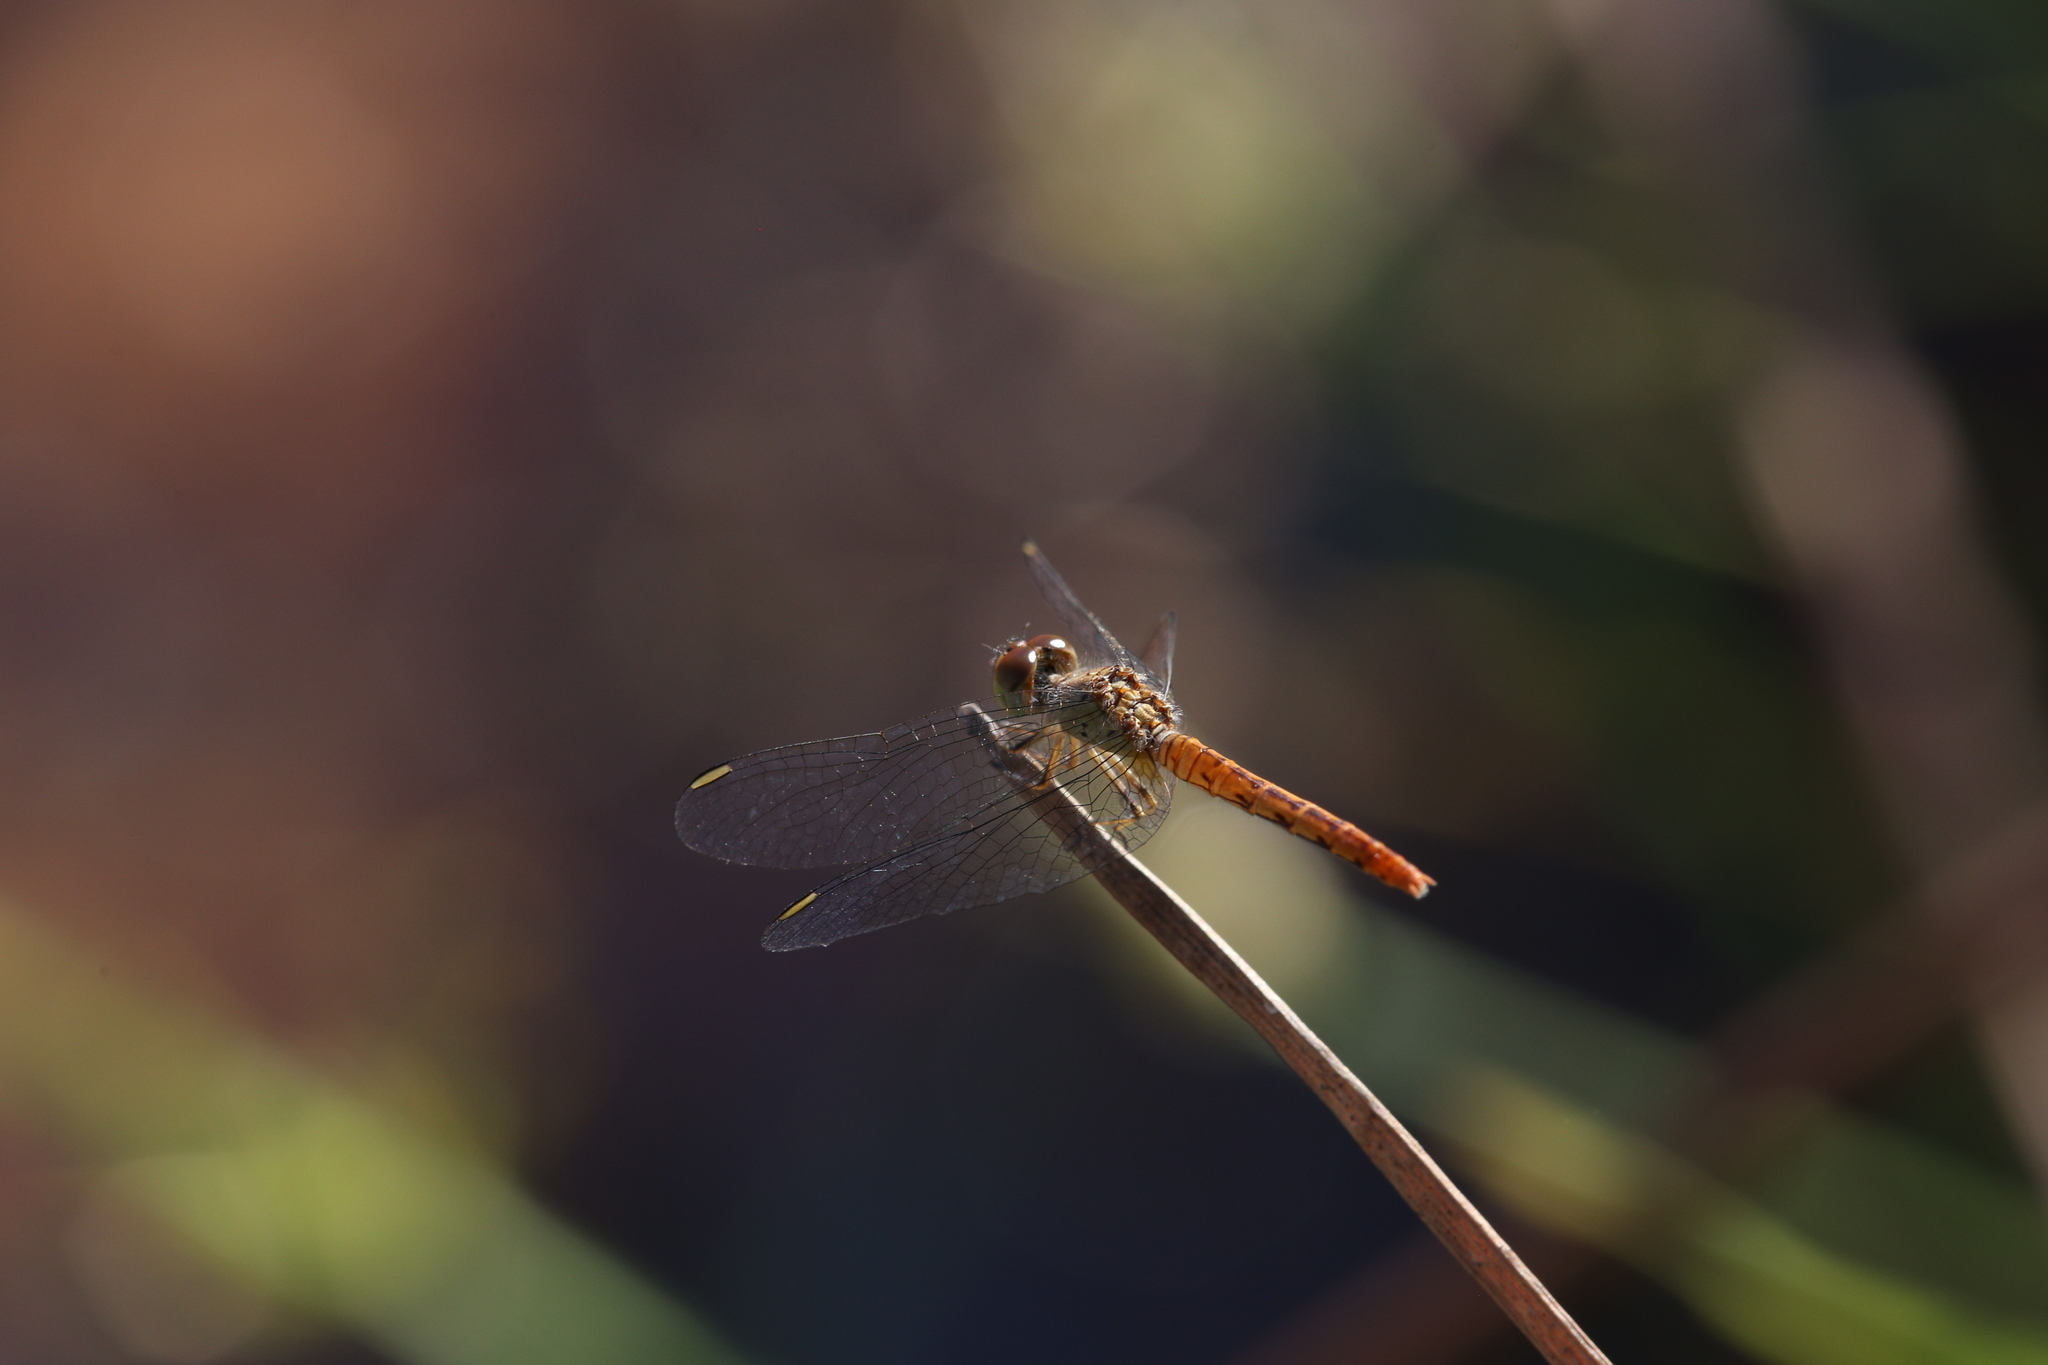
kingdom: Animalia
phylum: Arthropoda
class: Insecta
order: Odonata
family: Libellulidae
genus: Nannodiplax
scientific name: Nannodiplax rubra
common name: Pygmy percher
